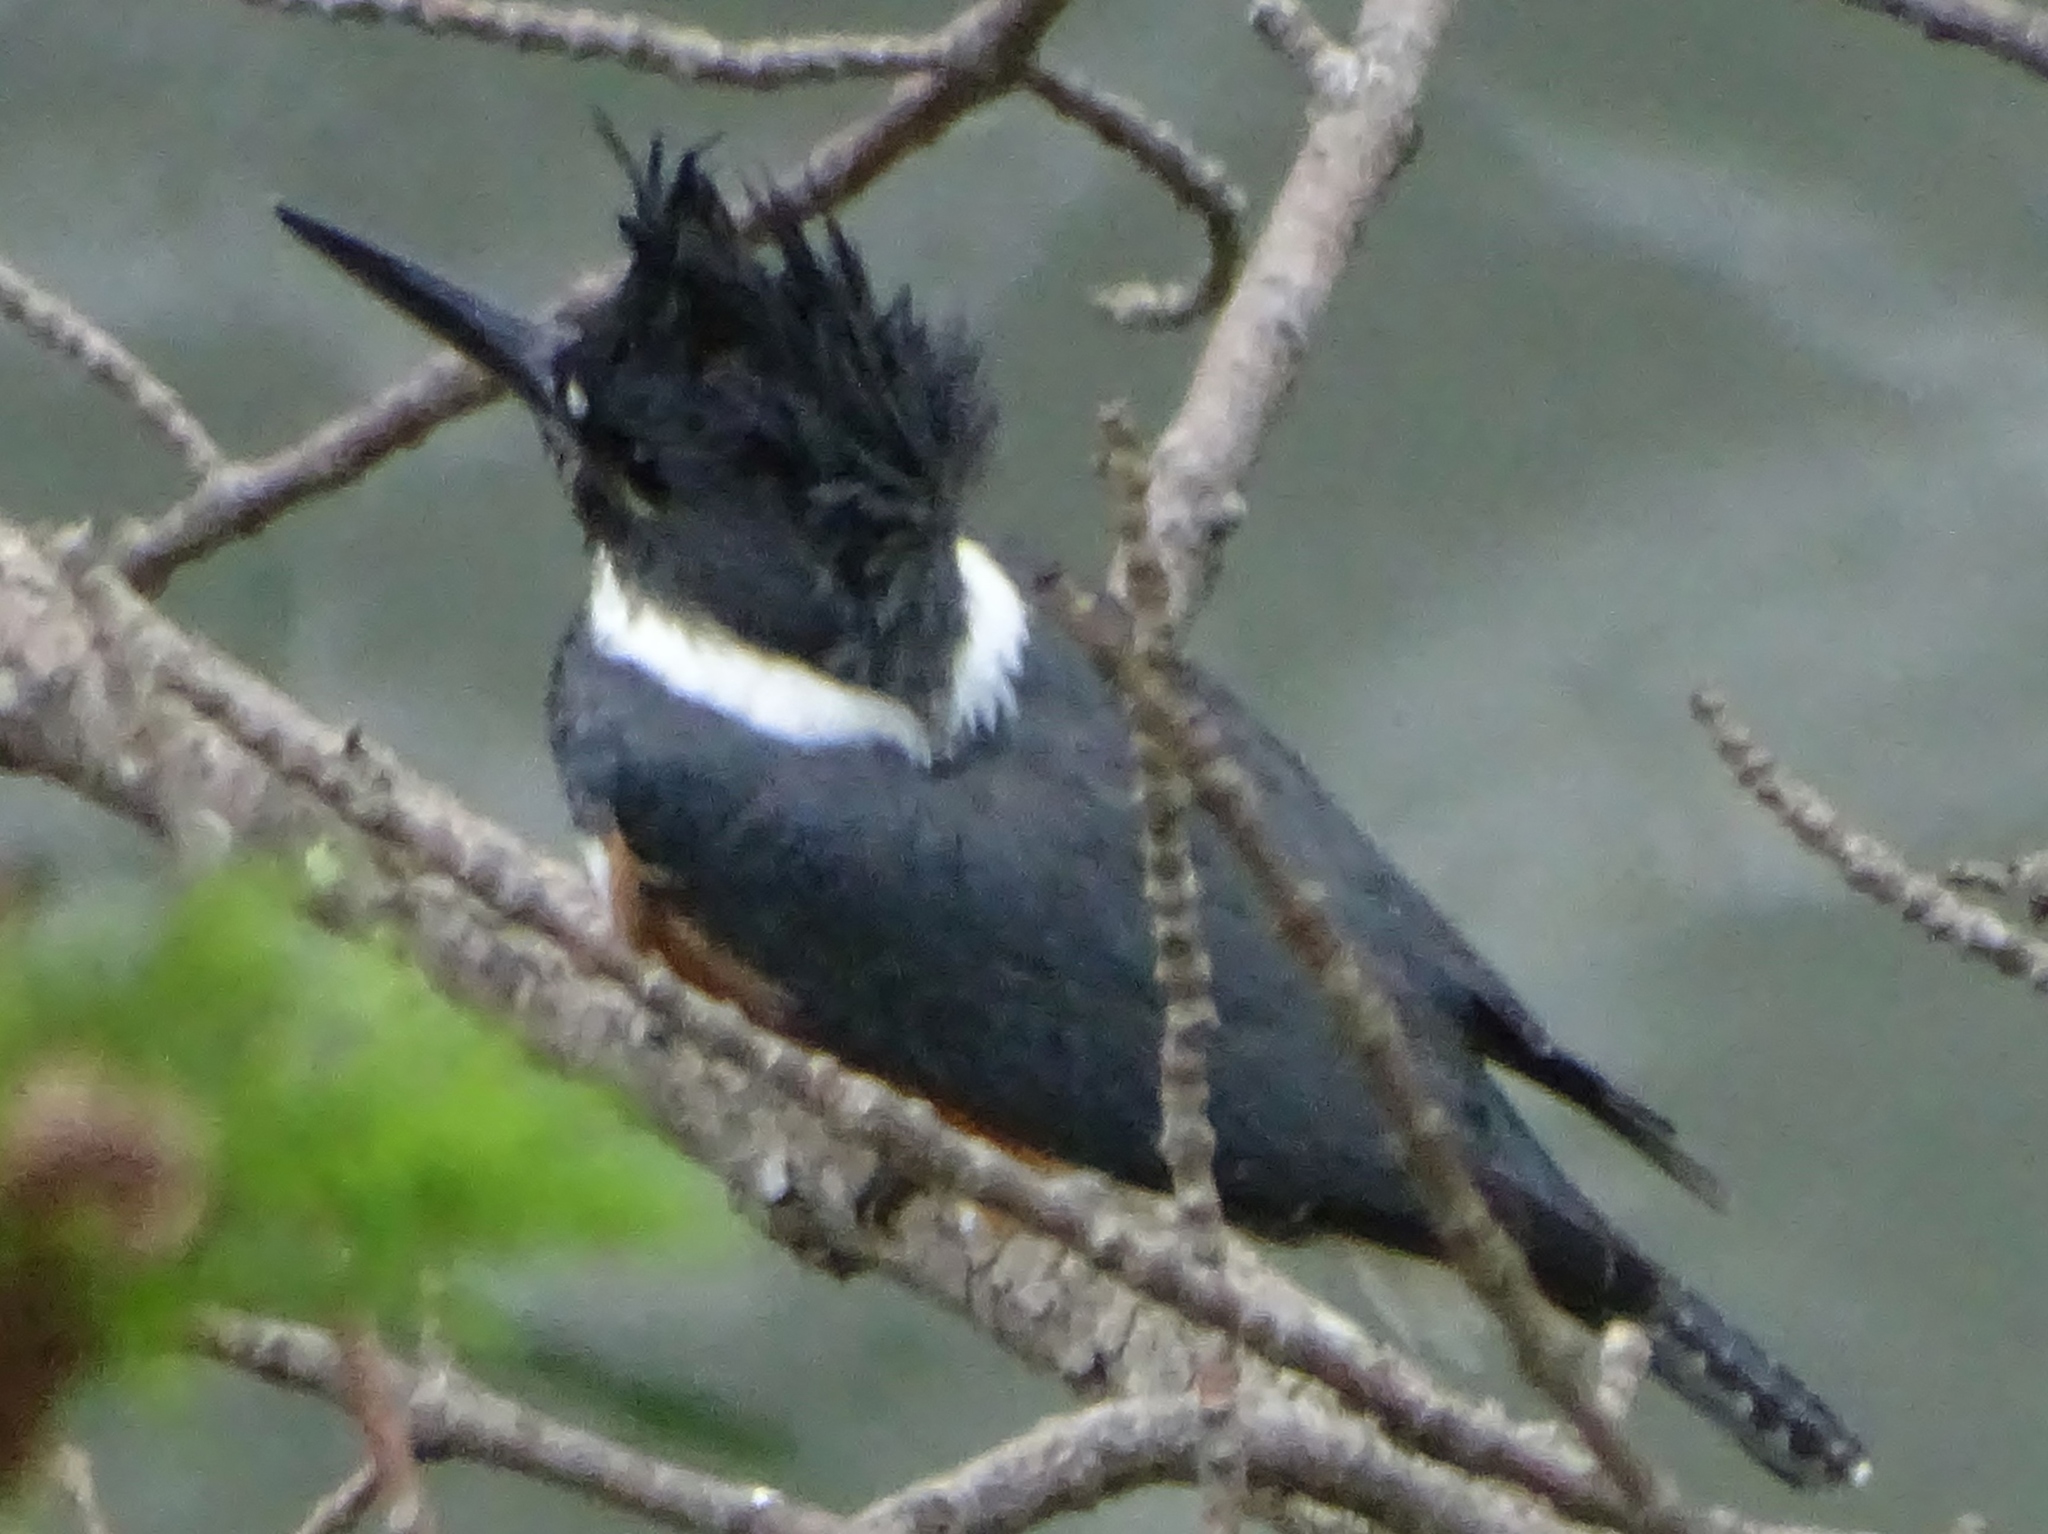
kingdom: Animalia
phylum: Chordata
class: Aves
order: Coraciiformes
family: Alcedinidae
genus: Megaceryle
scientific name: Megaceryle alcyon
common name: Belted kingfisher
